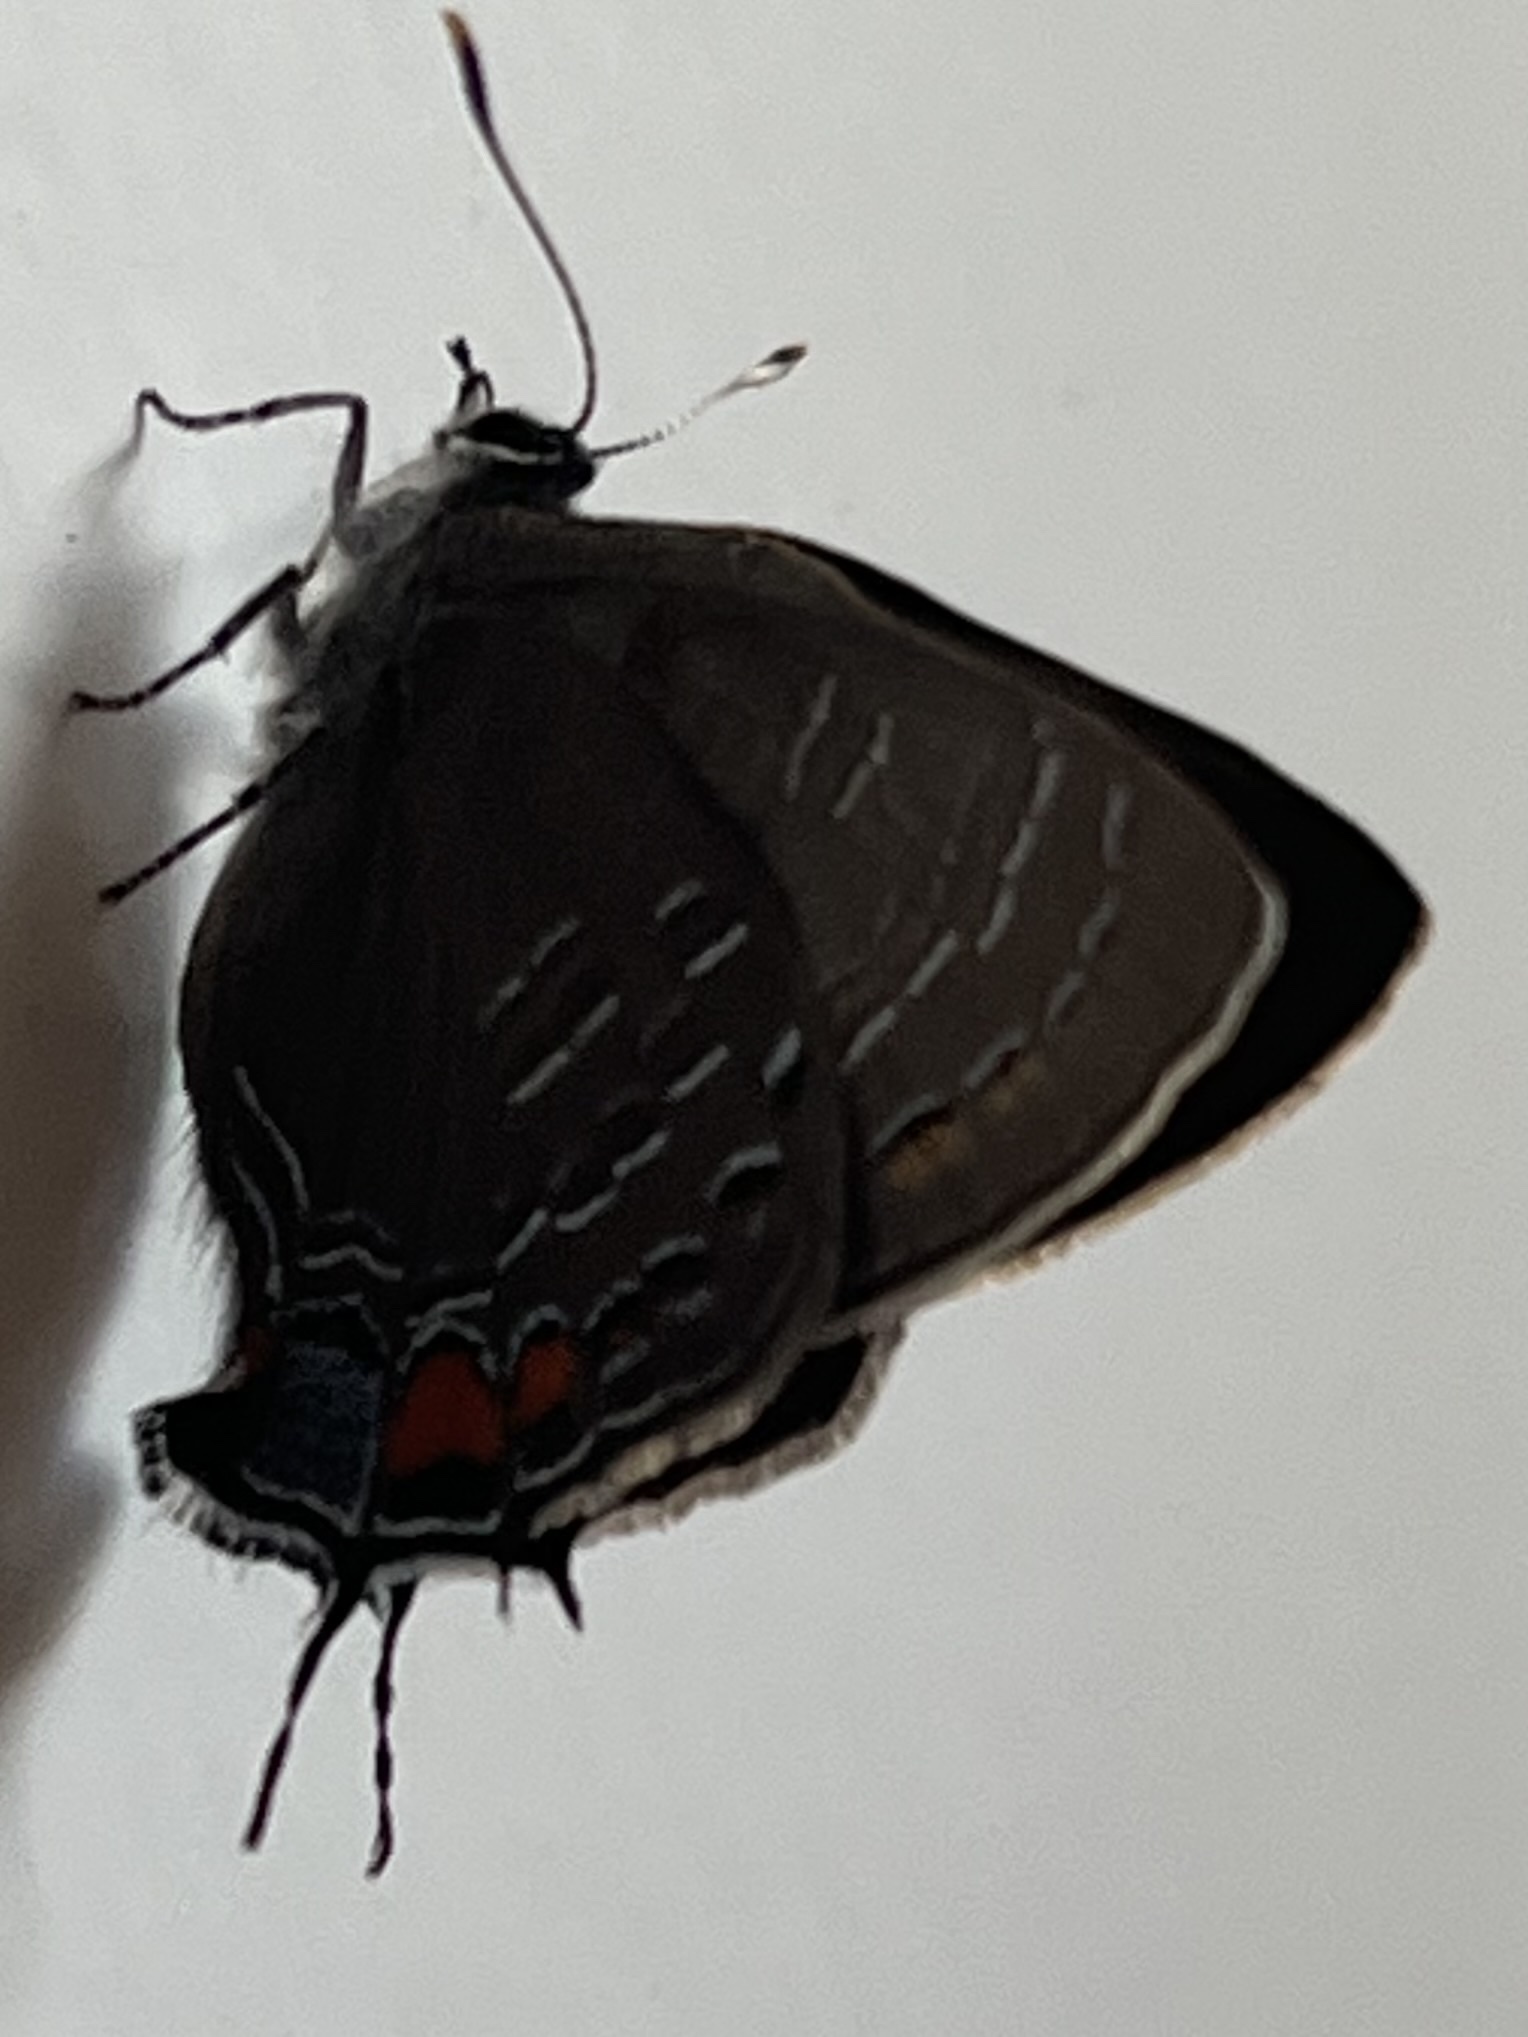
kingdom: Animalia
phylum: Arthropoda
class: Insecta
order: Lepidoptera
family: Lycaenidae
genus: Satyrium
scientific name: Satyrium calanus
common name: Banded hairstreak
